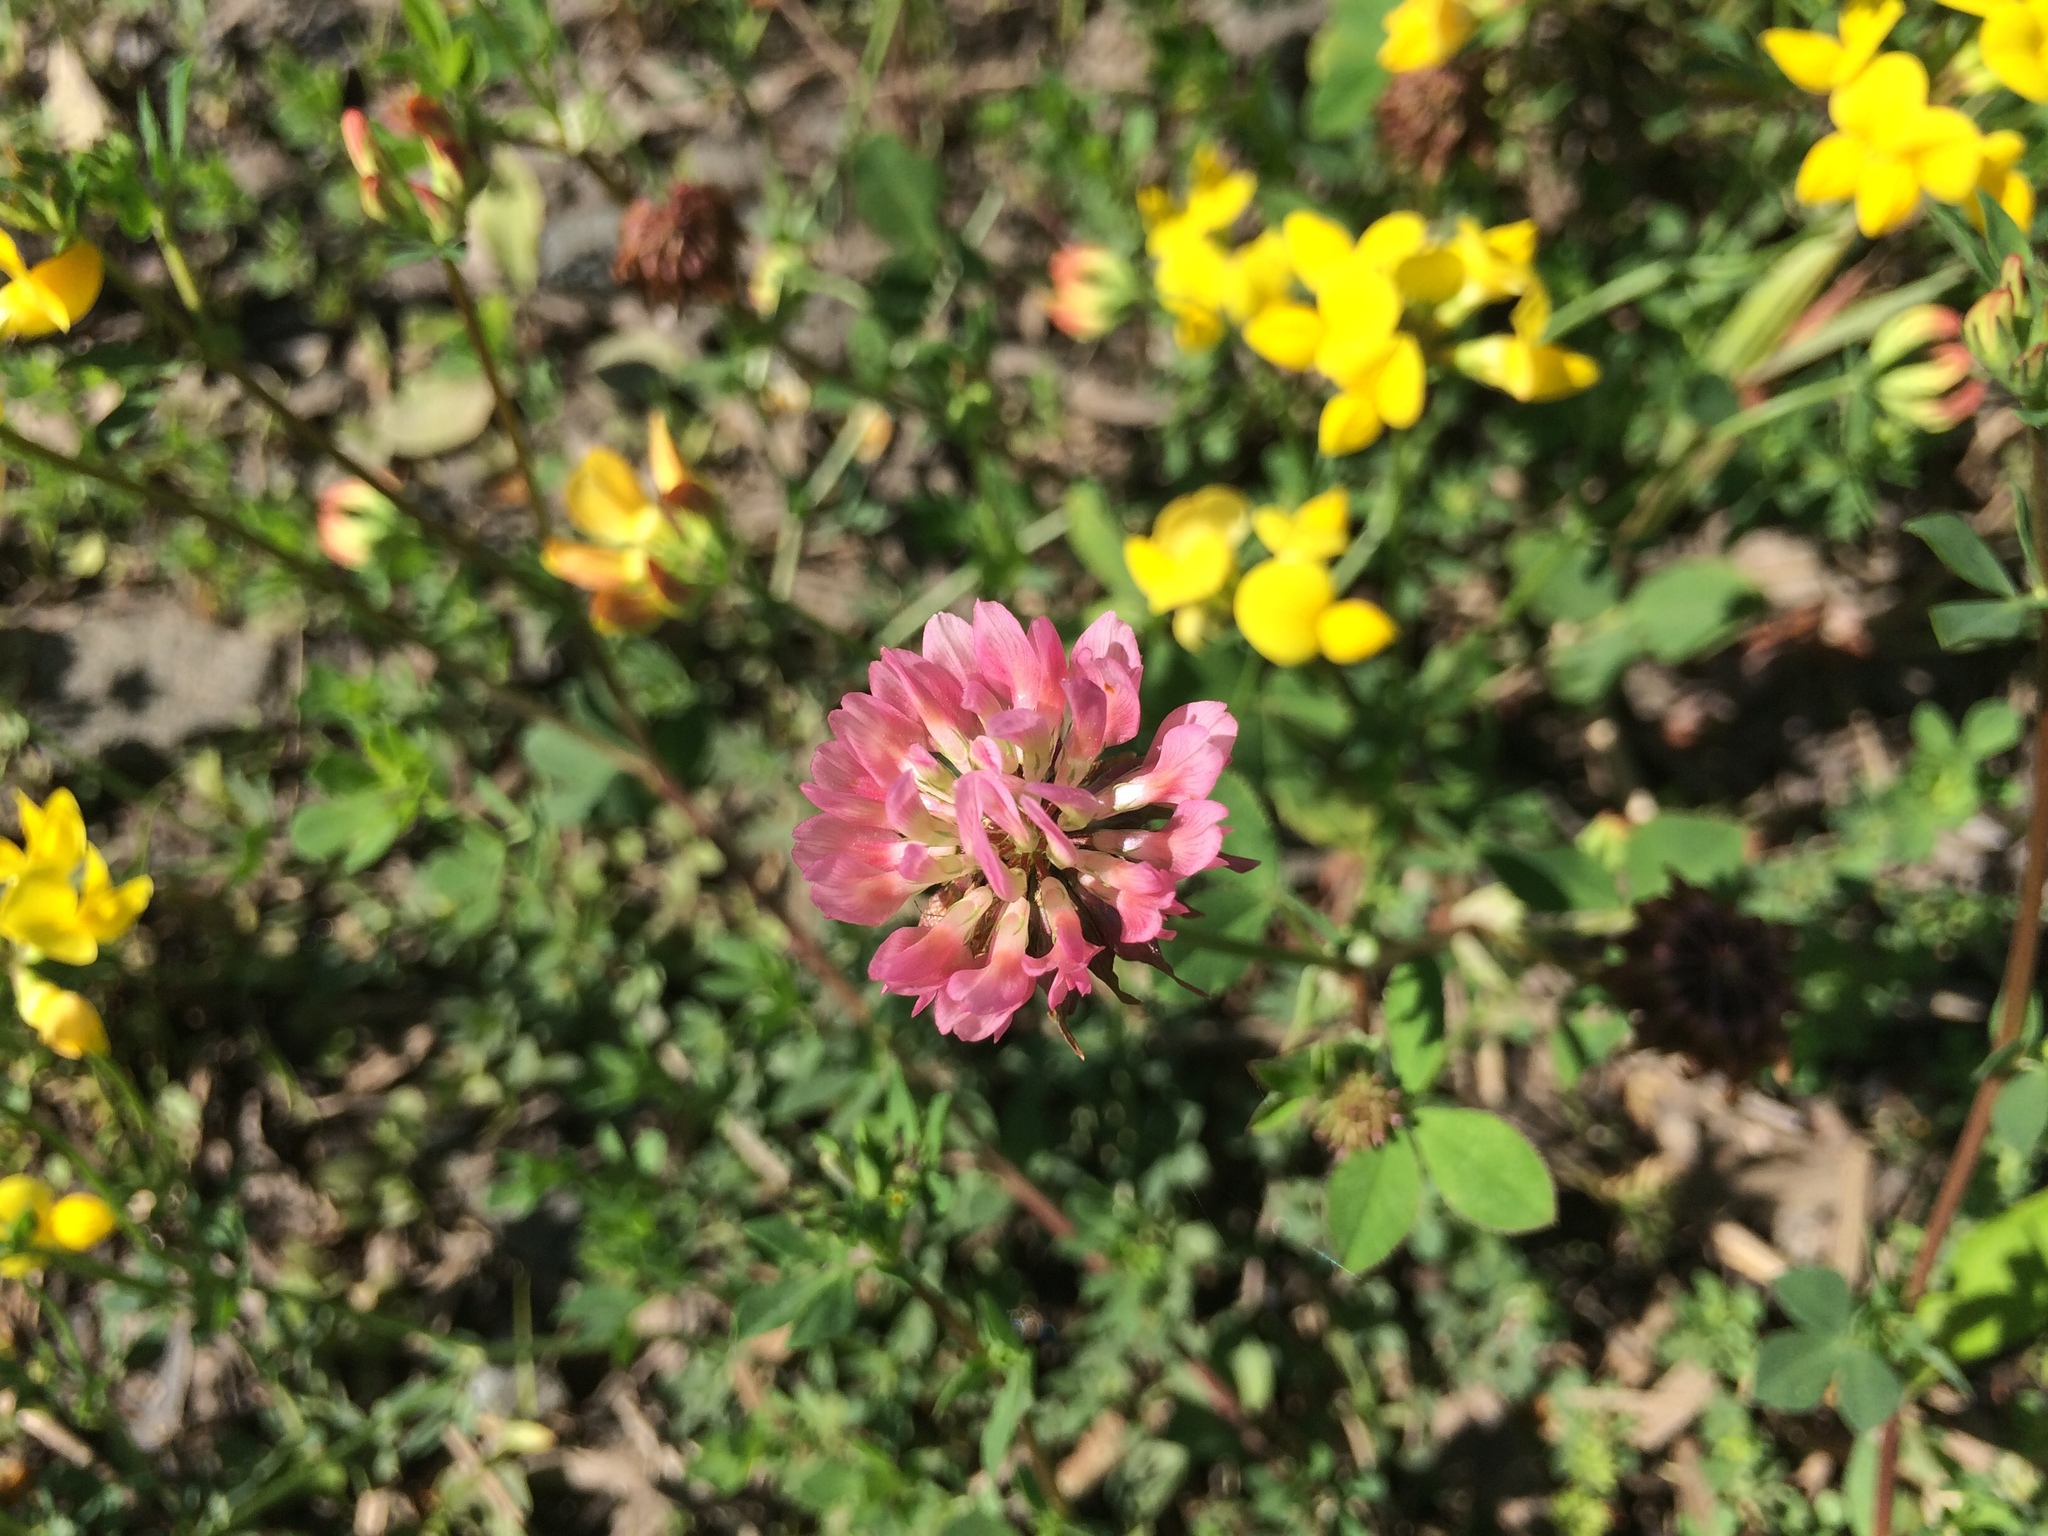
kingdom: Plantae
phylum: Tracheophyta
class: Magnoliopsida
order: Fabales
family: Fabaceae
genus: Trifolium
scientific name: Trifolium pratense
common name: Red clover
